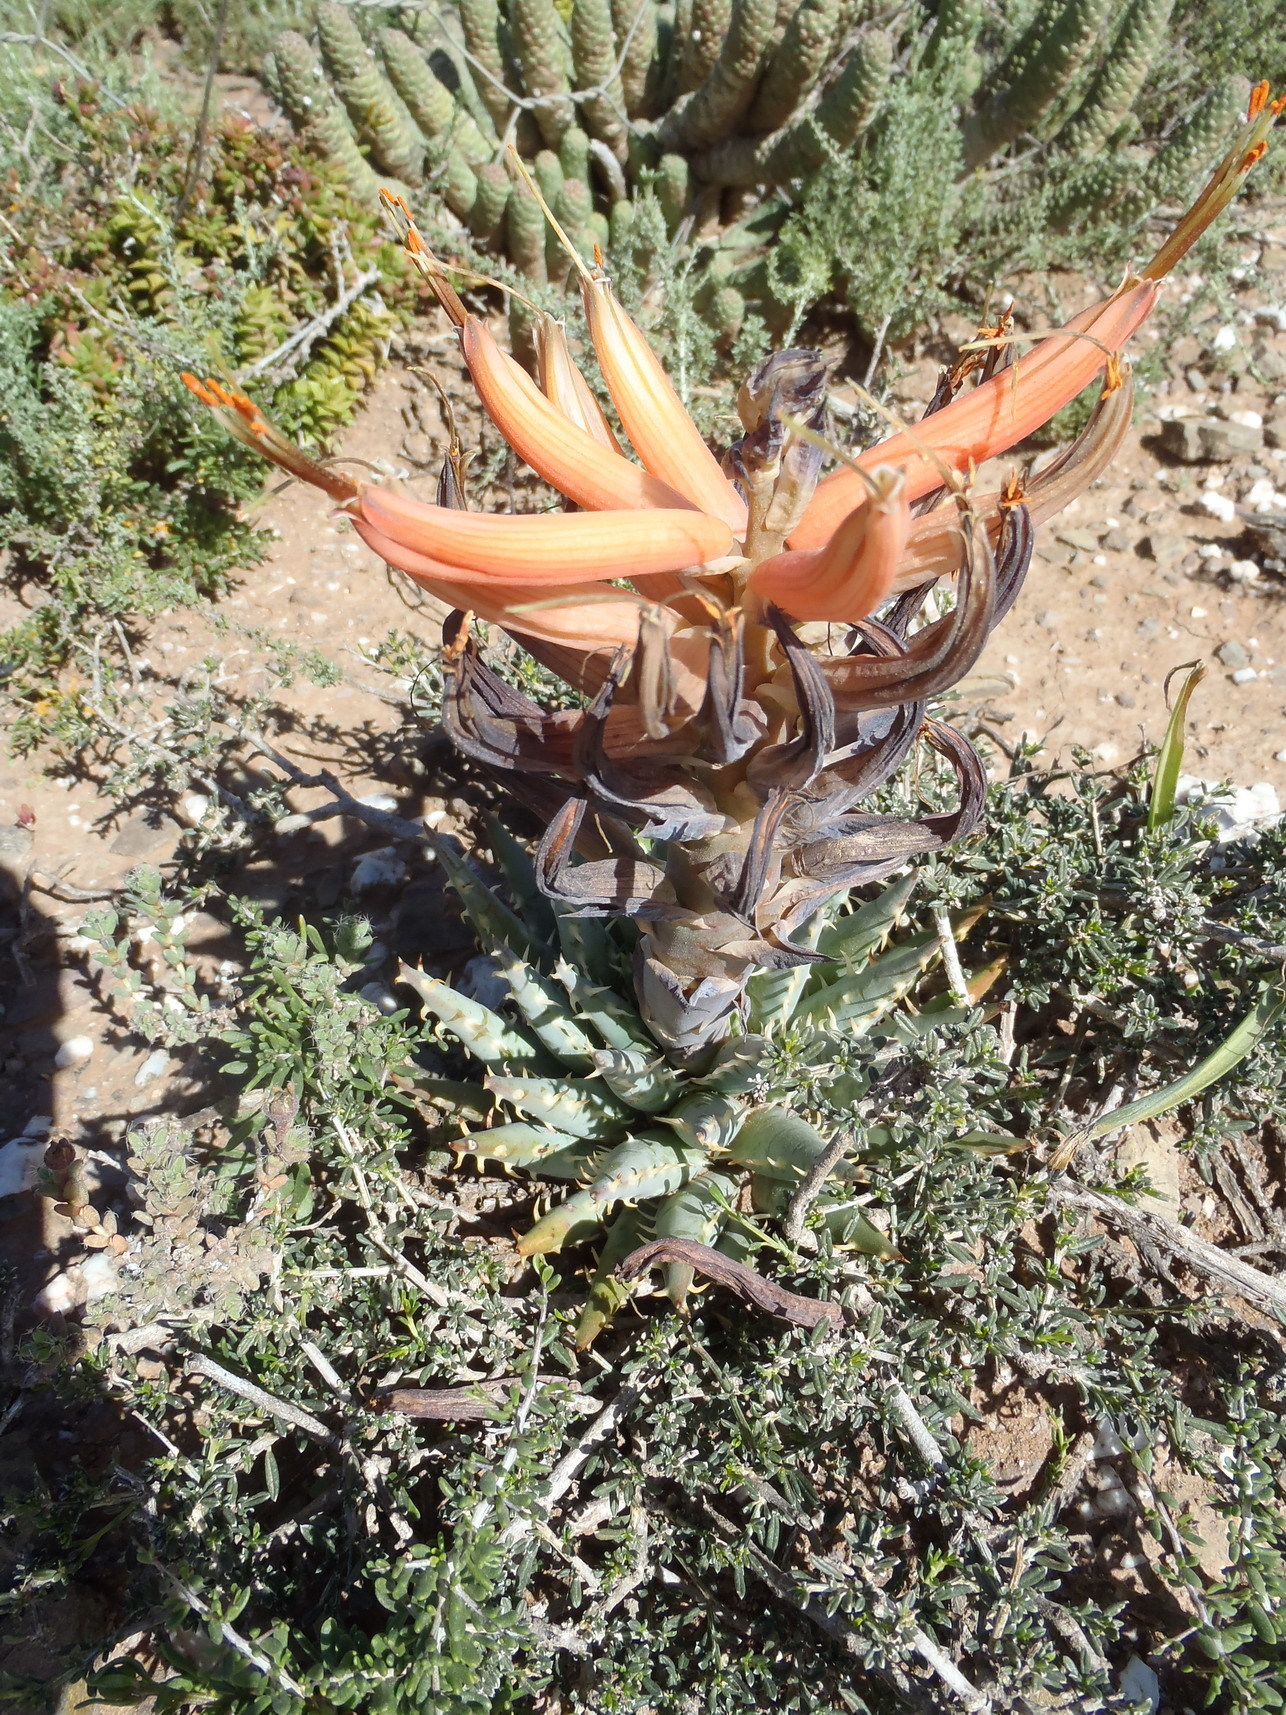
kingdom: Plantae
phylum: Tracheophyta
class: Liliopsida
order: Asparagales
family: Asphodelaceae
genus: Aloe
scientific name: Aloe longistyla
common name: Karoo aloe
